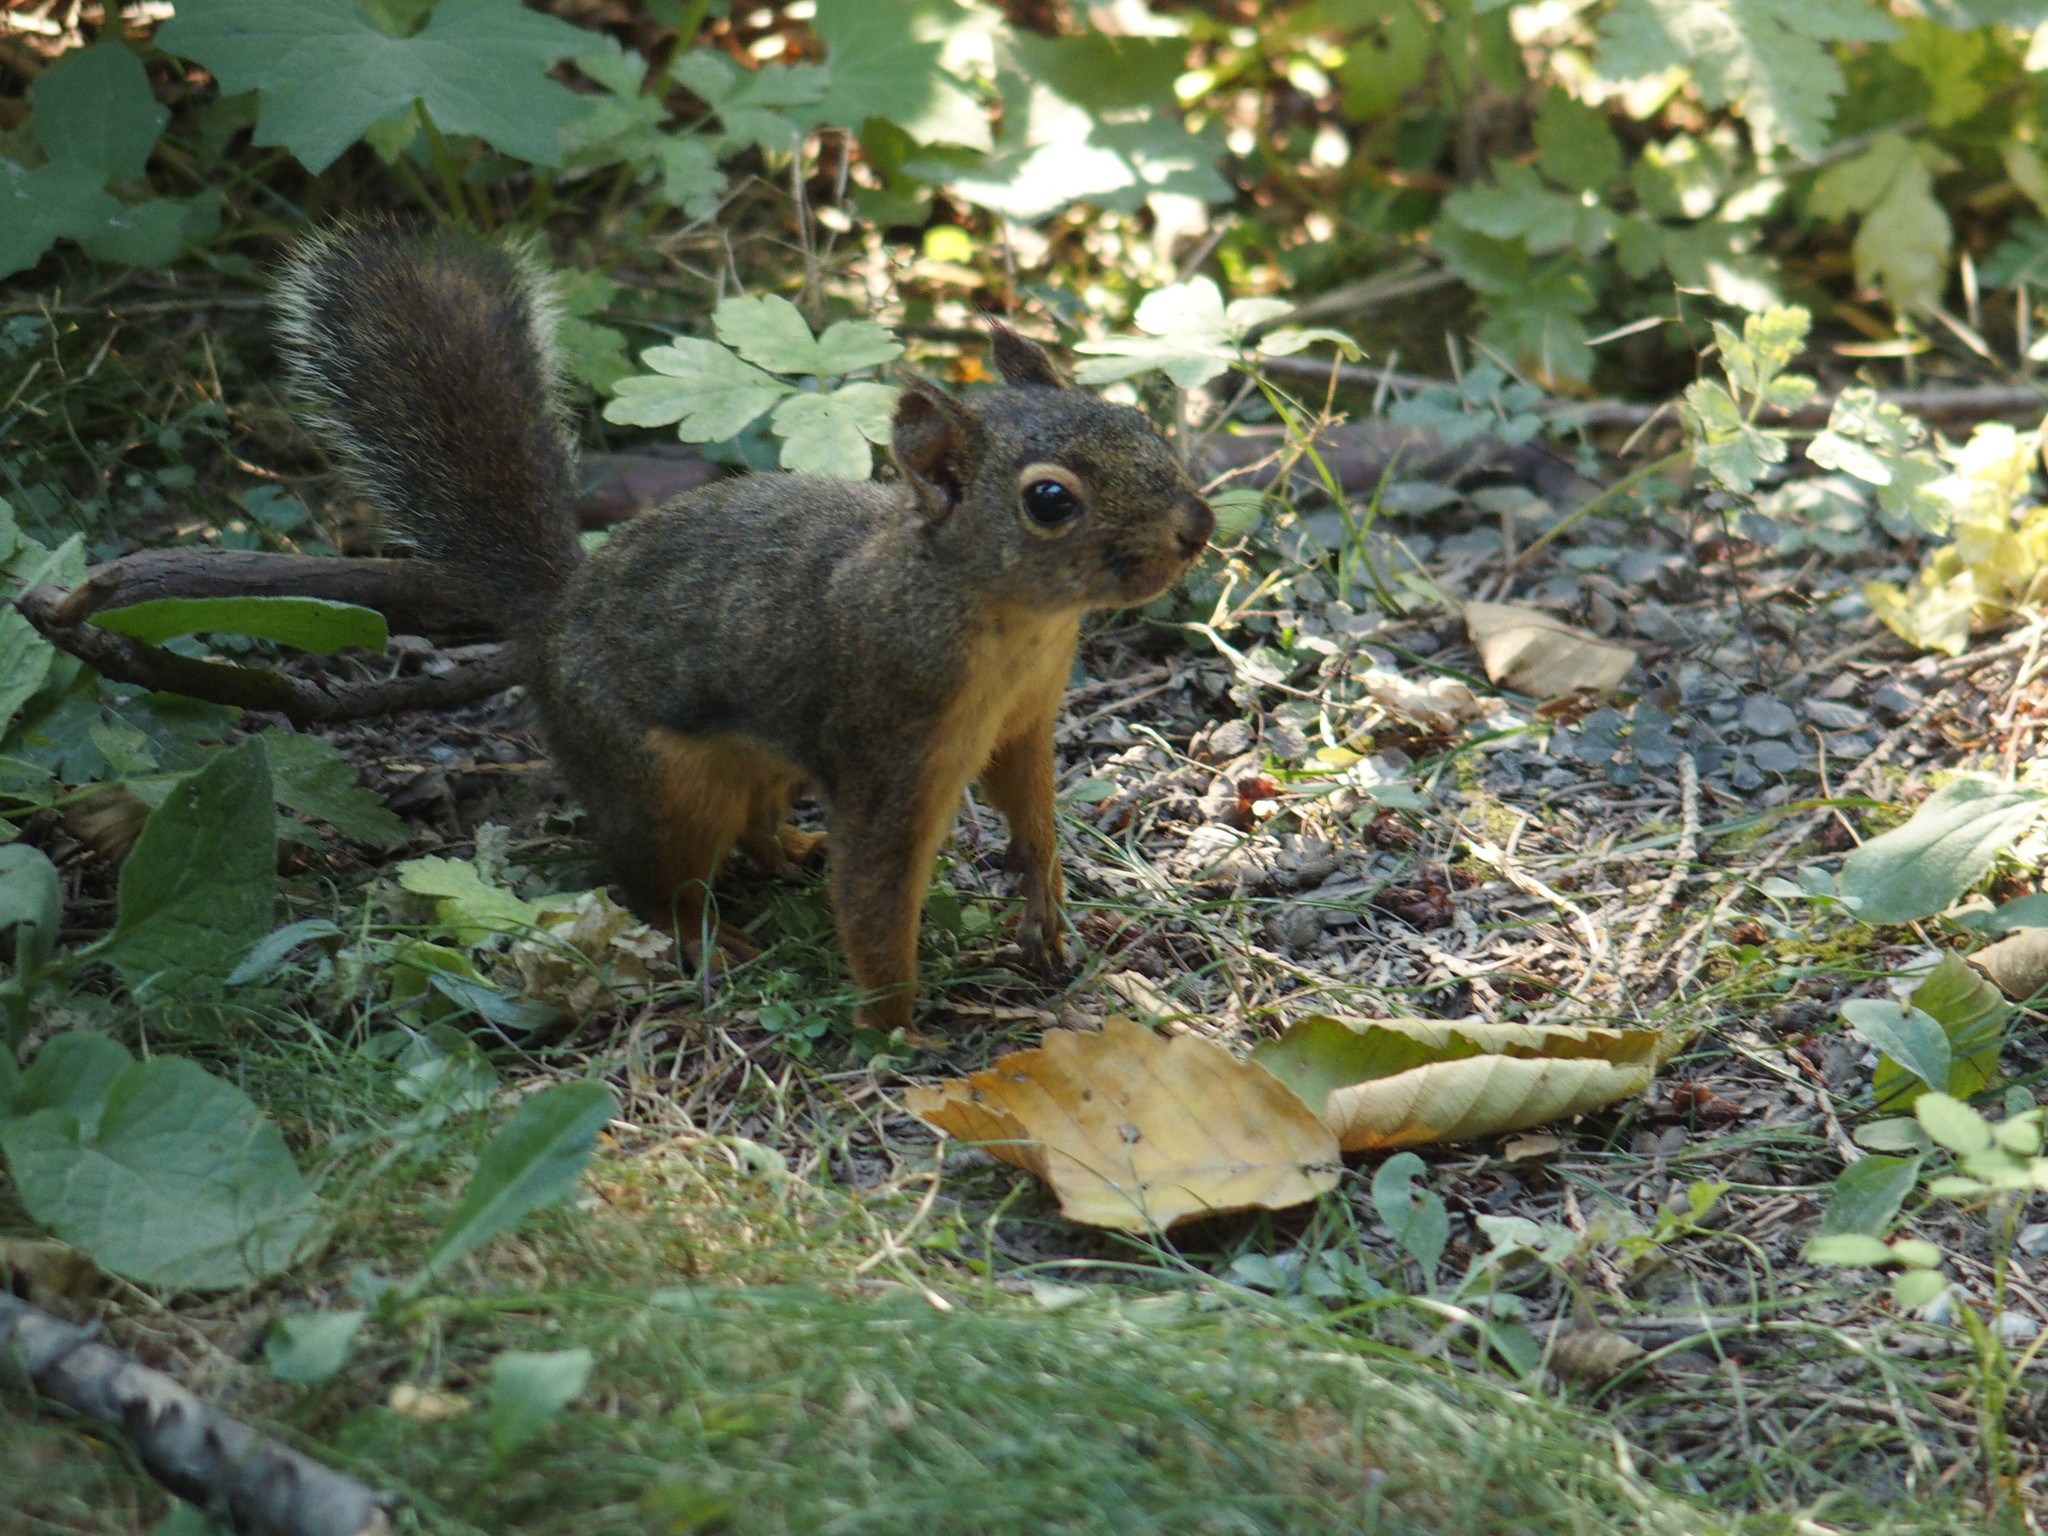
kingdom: Animalia
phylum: Chordata
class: Mammalia
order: Rodentia
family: Sciuridae
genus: Tamiasciurus
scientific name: Tamiasciurus douglasii
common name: Douglas's squirrel
